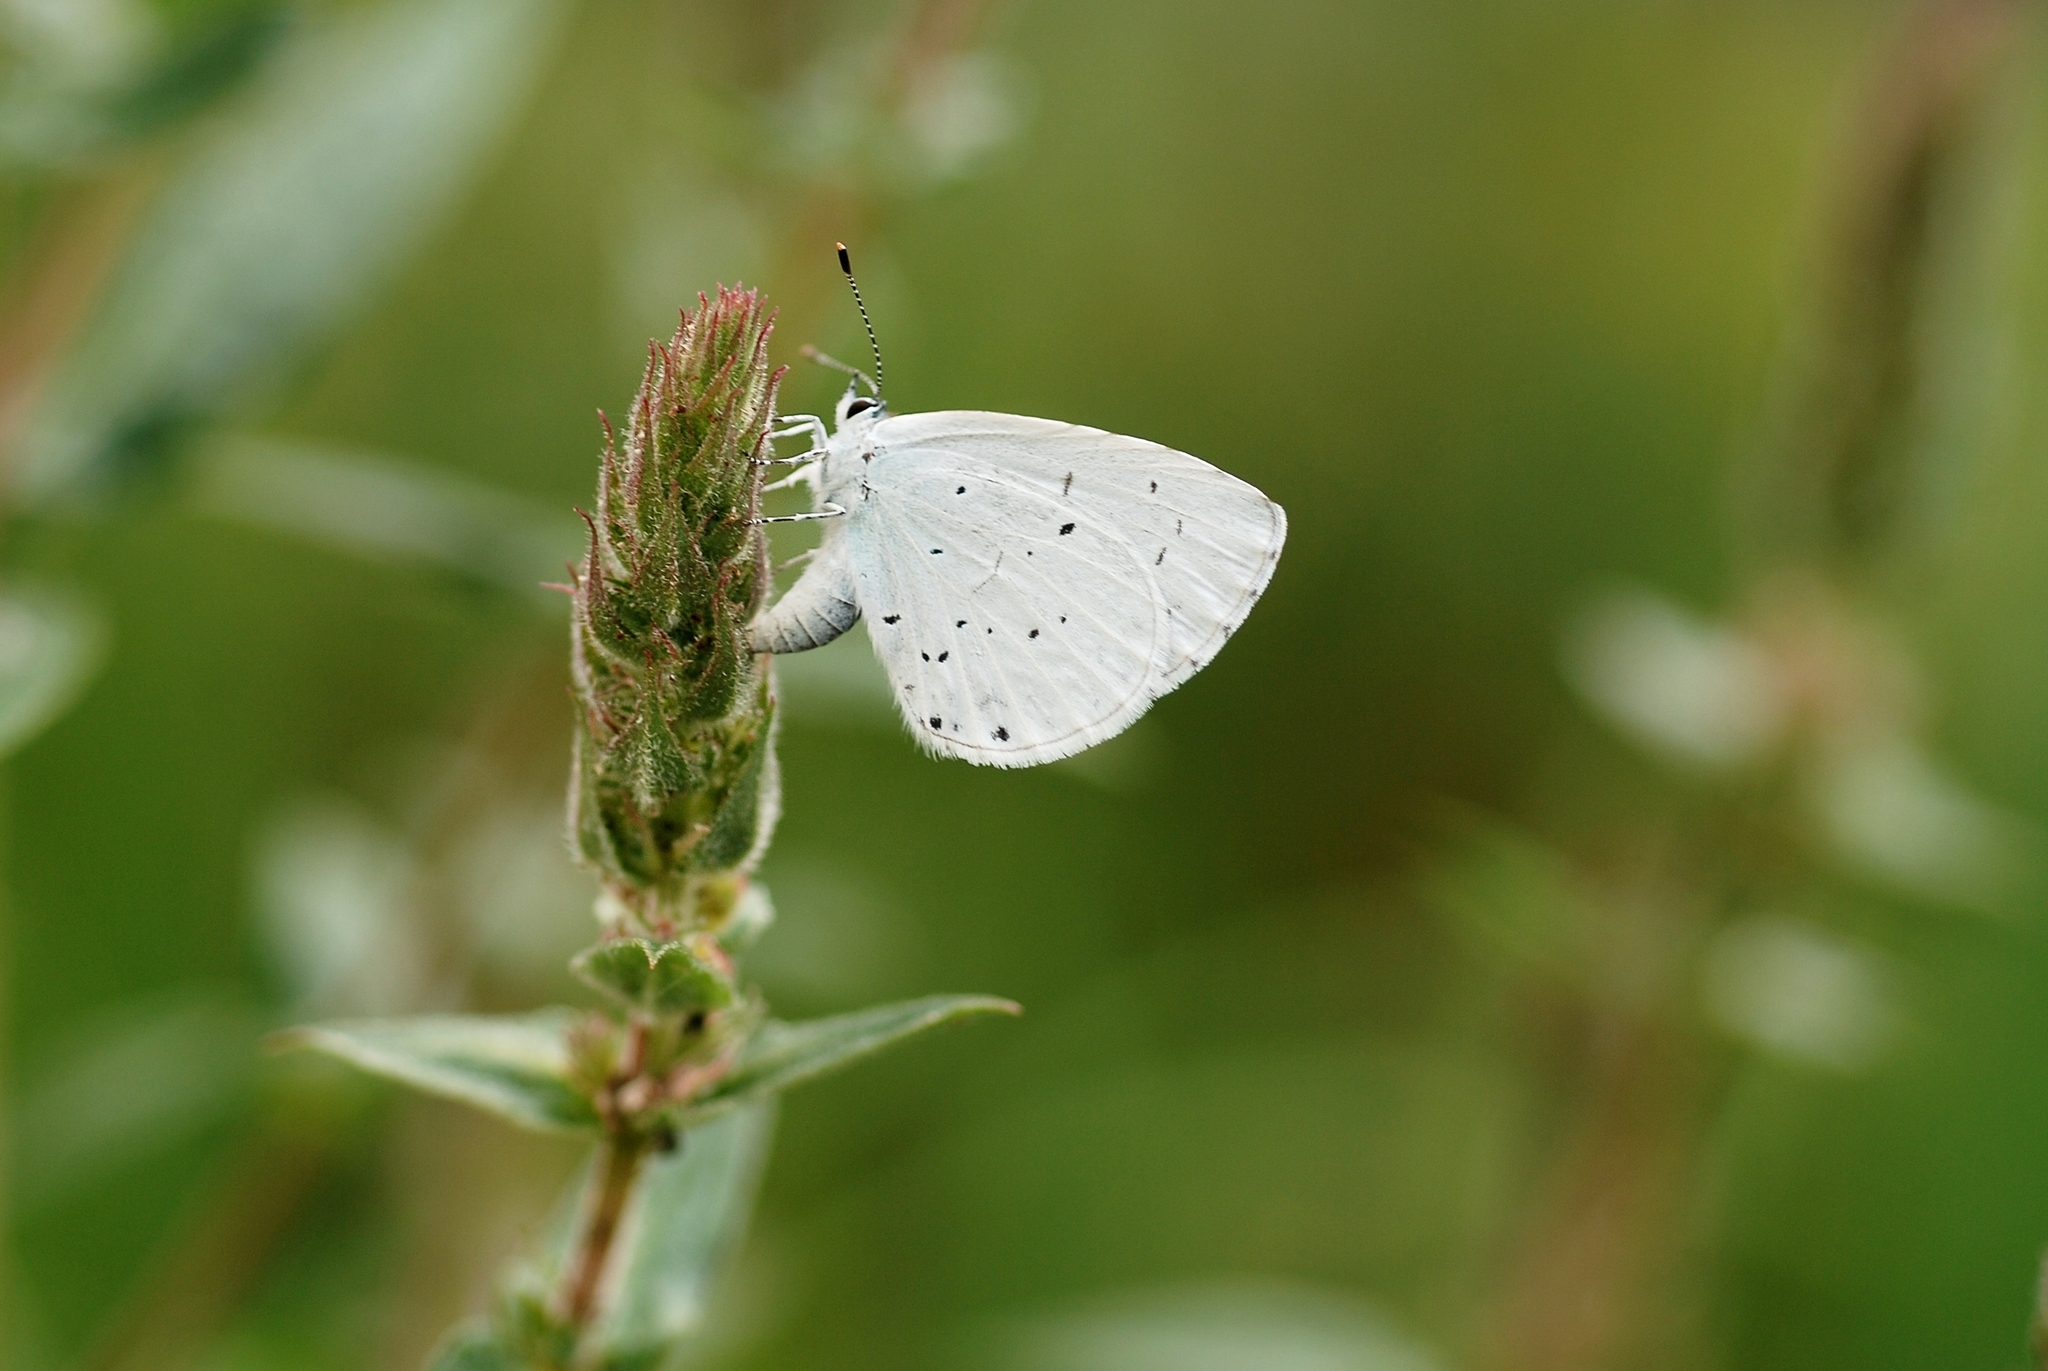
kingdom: Animalia
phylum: Arthropoda
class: Insecta
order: Lepidoptera
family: Lycaenidae
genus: Celastrina
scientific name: Celastrina argiolus
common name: Holly blue
